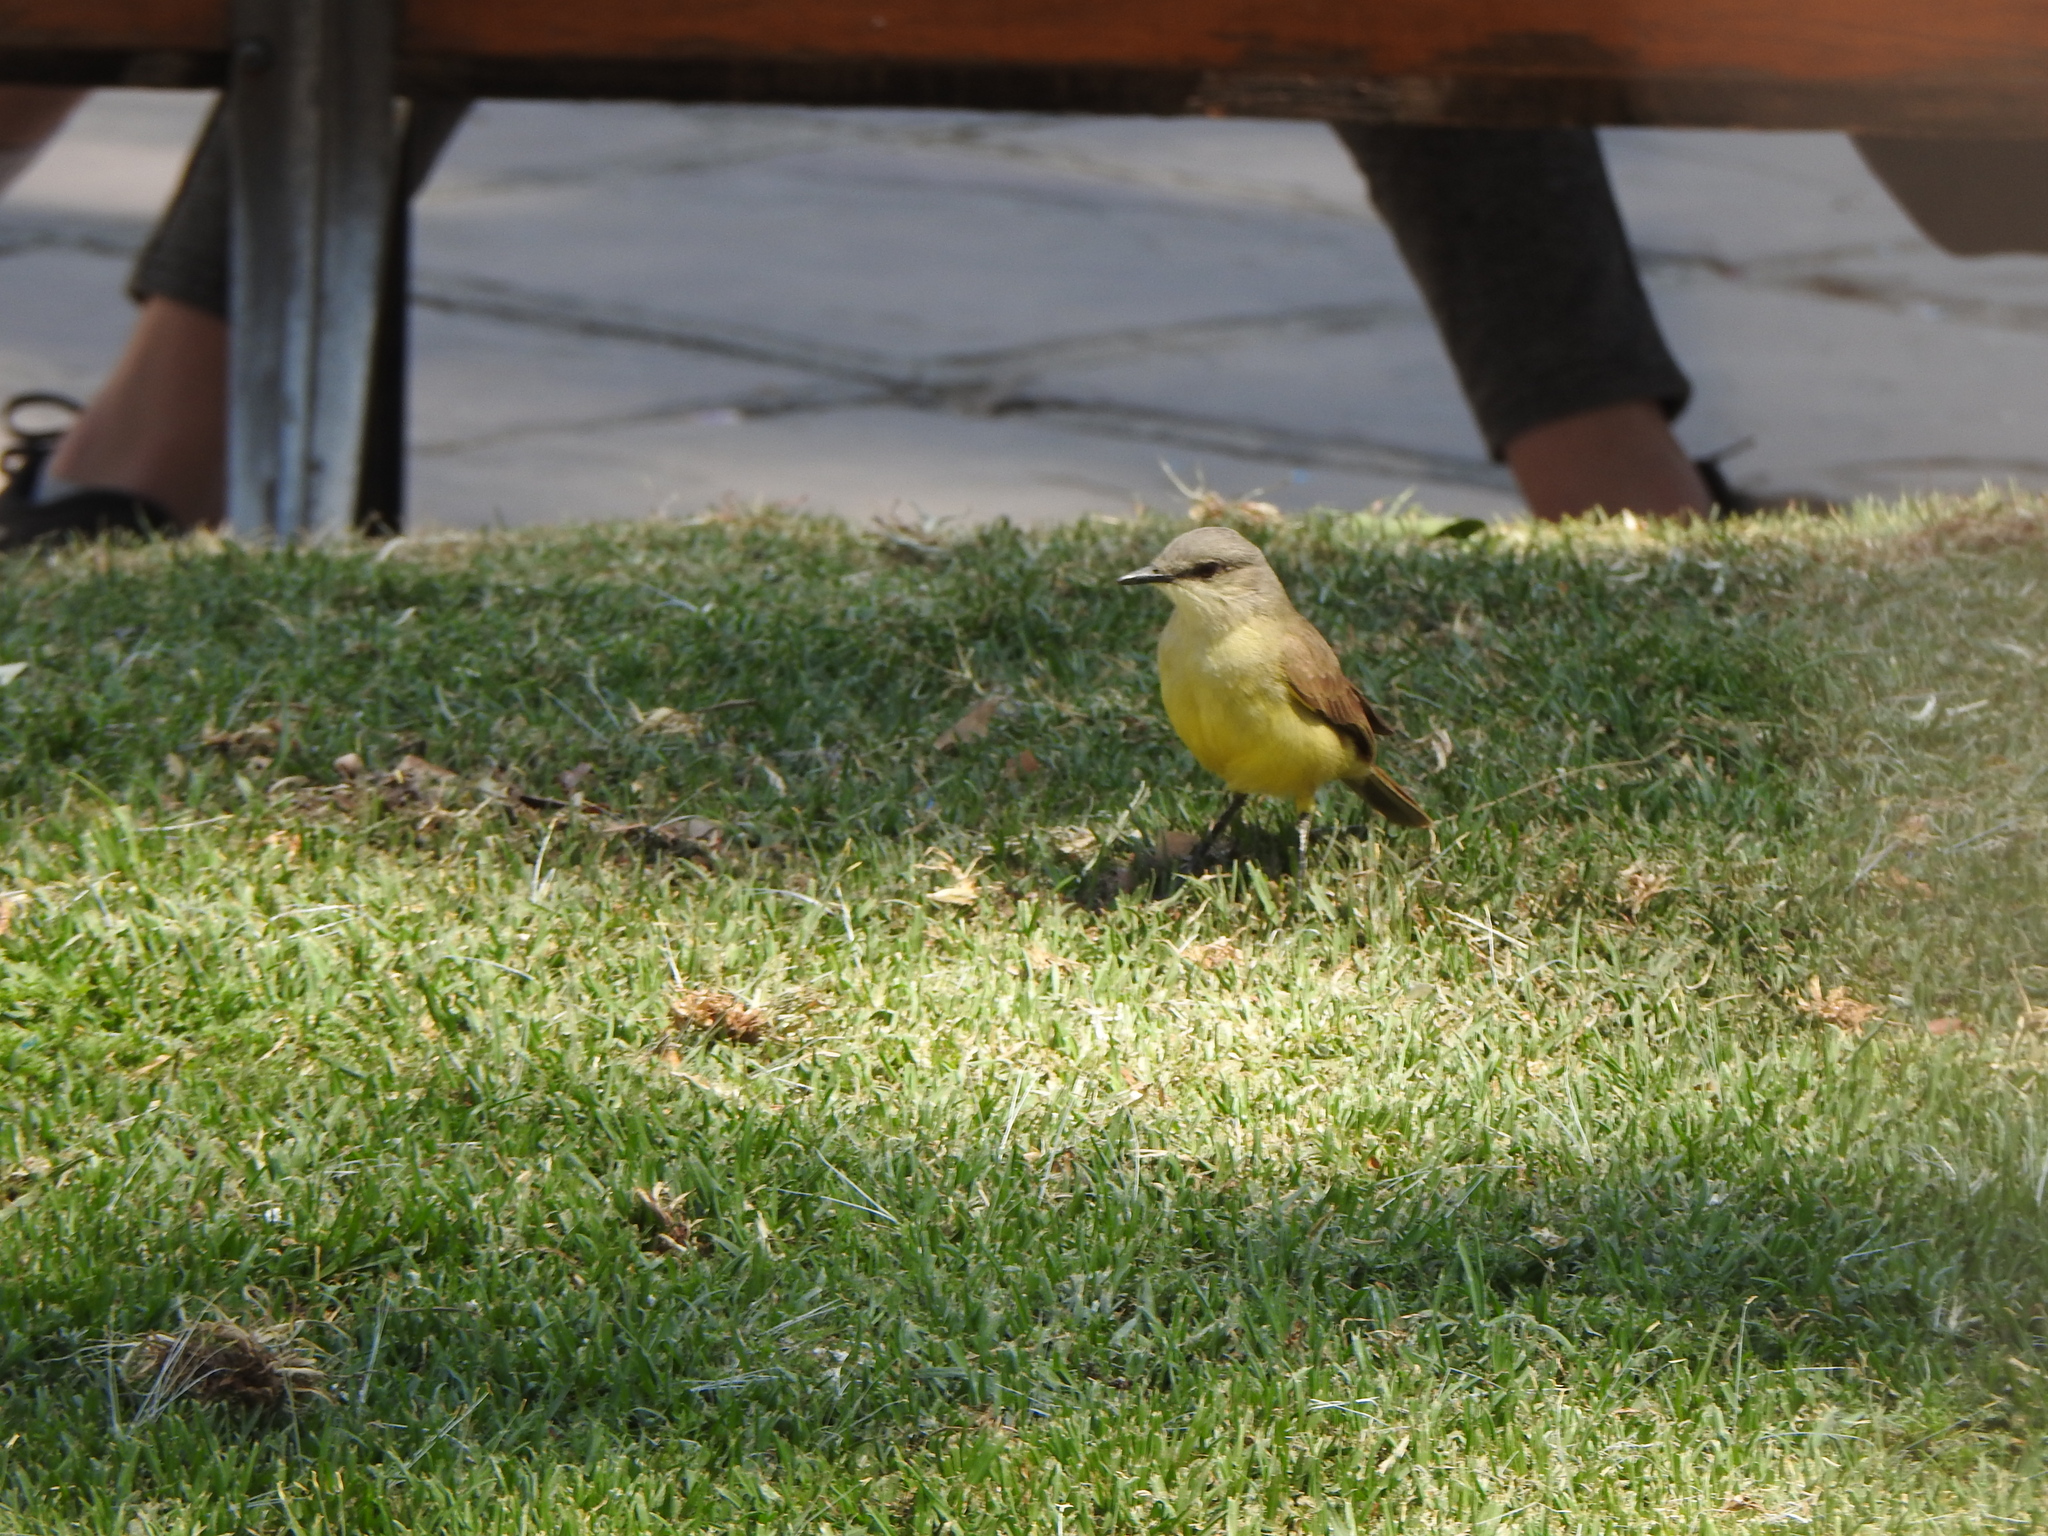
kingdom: Animalia
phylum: Chordata
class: Aves
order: Passeriformes
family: Tyrannidae
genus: Machetornis
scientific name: Machetornis rixosa
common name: Cattle tyrant
